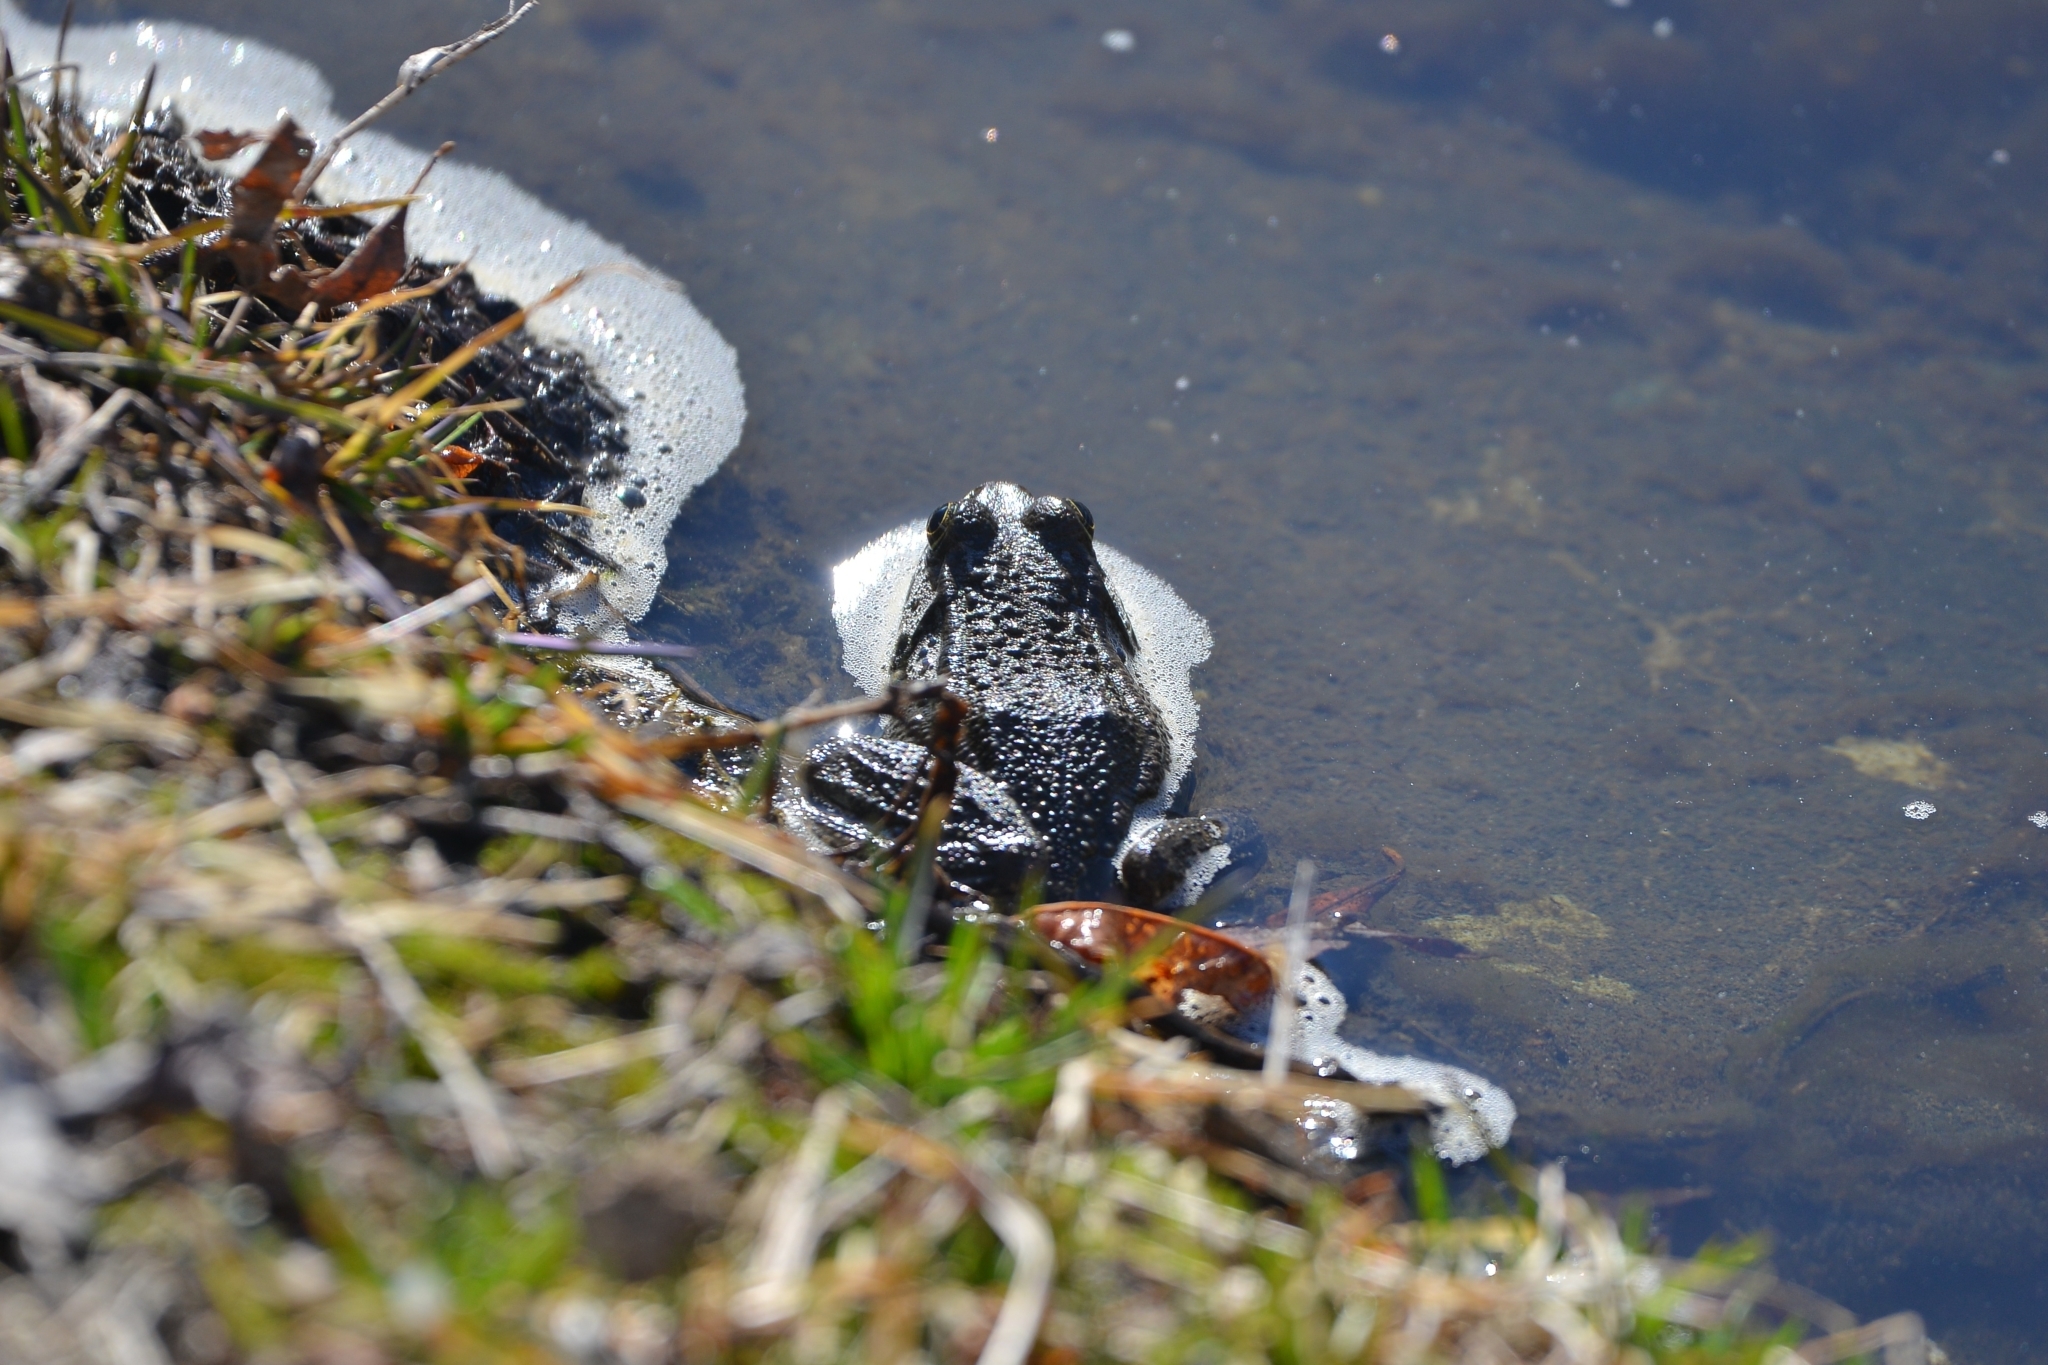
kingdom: Animalia
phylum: Chordata
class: Amphibia
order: Anura
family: Ranidae
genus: Pelophylax
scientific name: Pelophylax ridibundus
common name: Marsh frog
